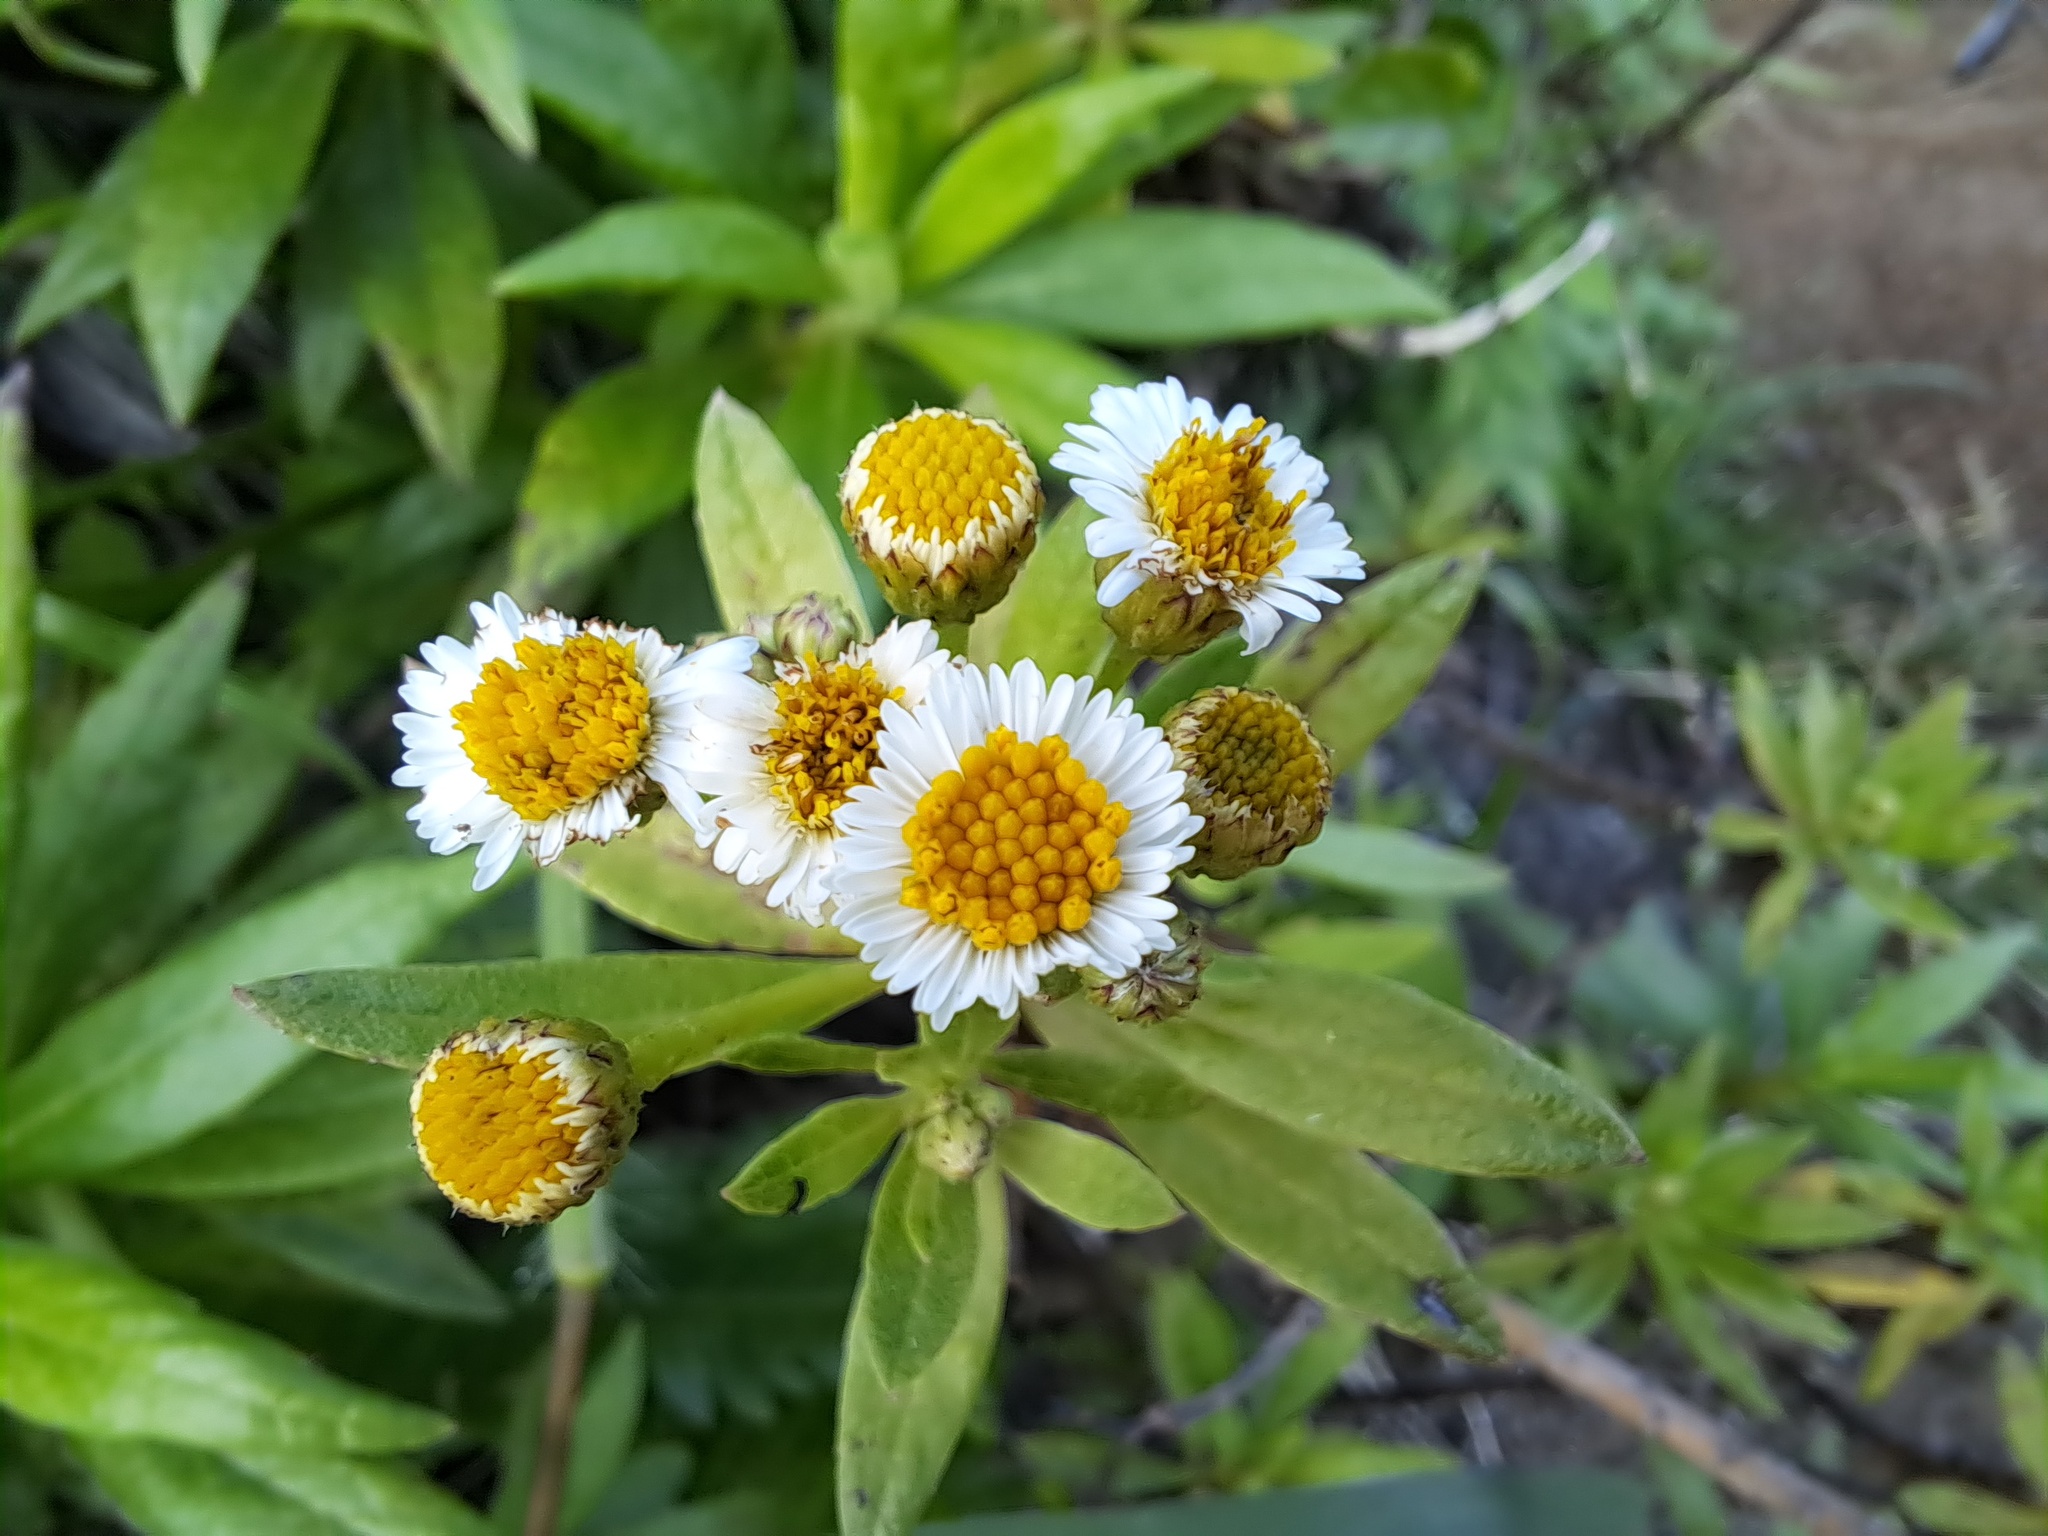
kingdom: Plantae
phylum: Tracheophyta
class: Magnoliopsida
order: Asterales
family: Asteraceae
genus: Erigeron
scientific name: Erigeron lancifolius
